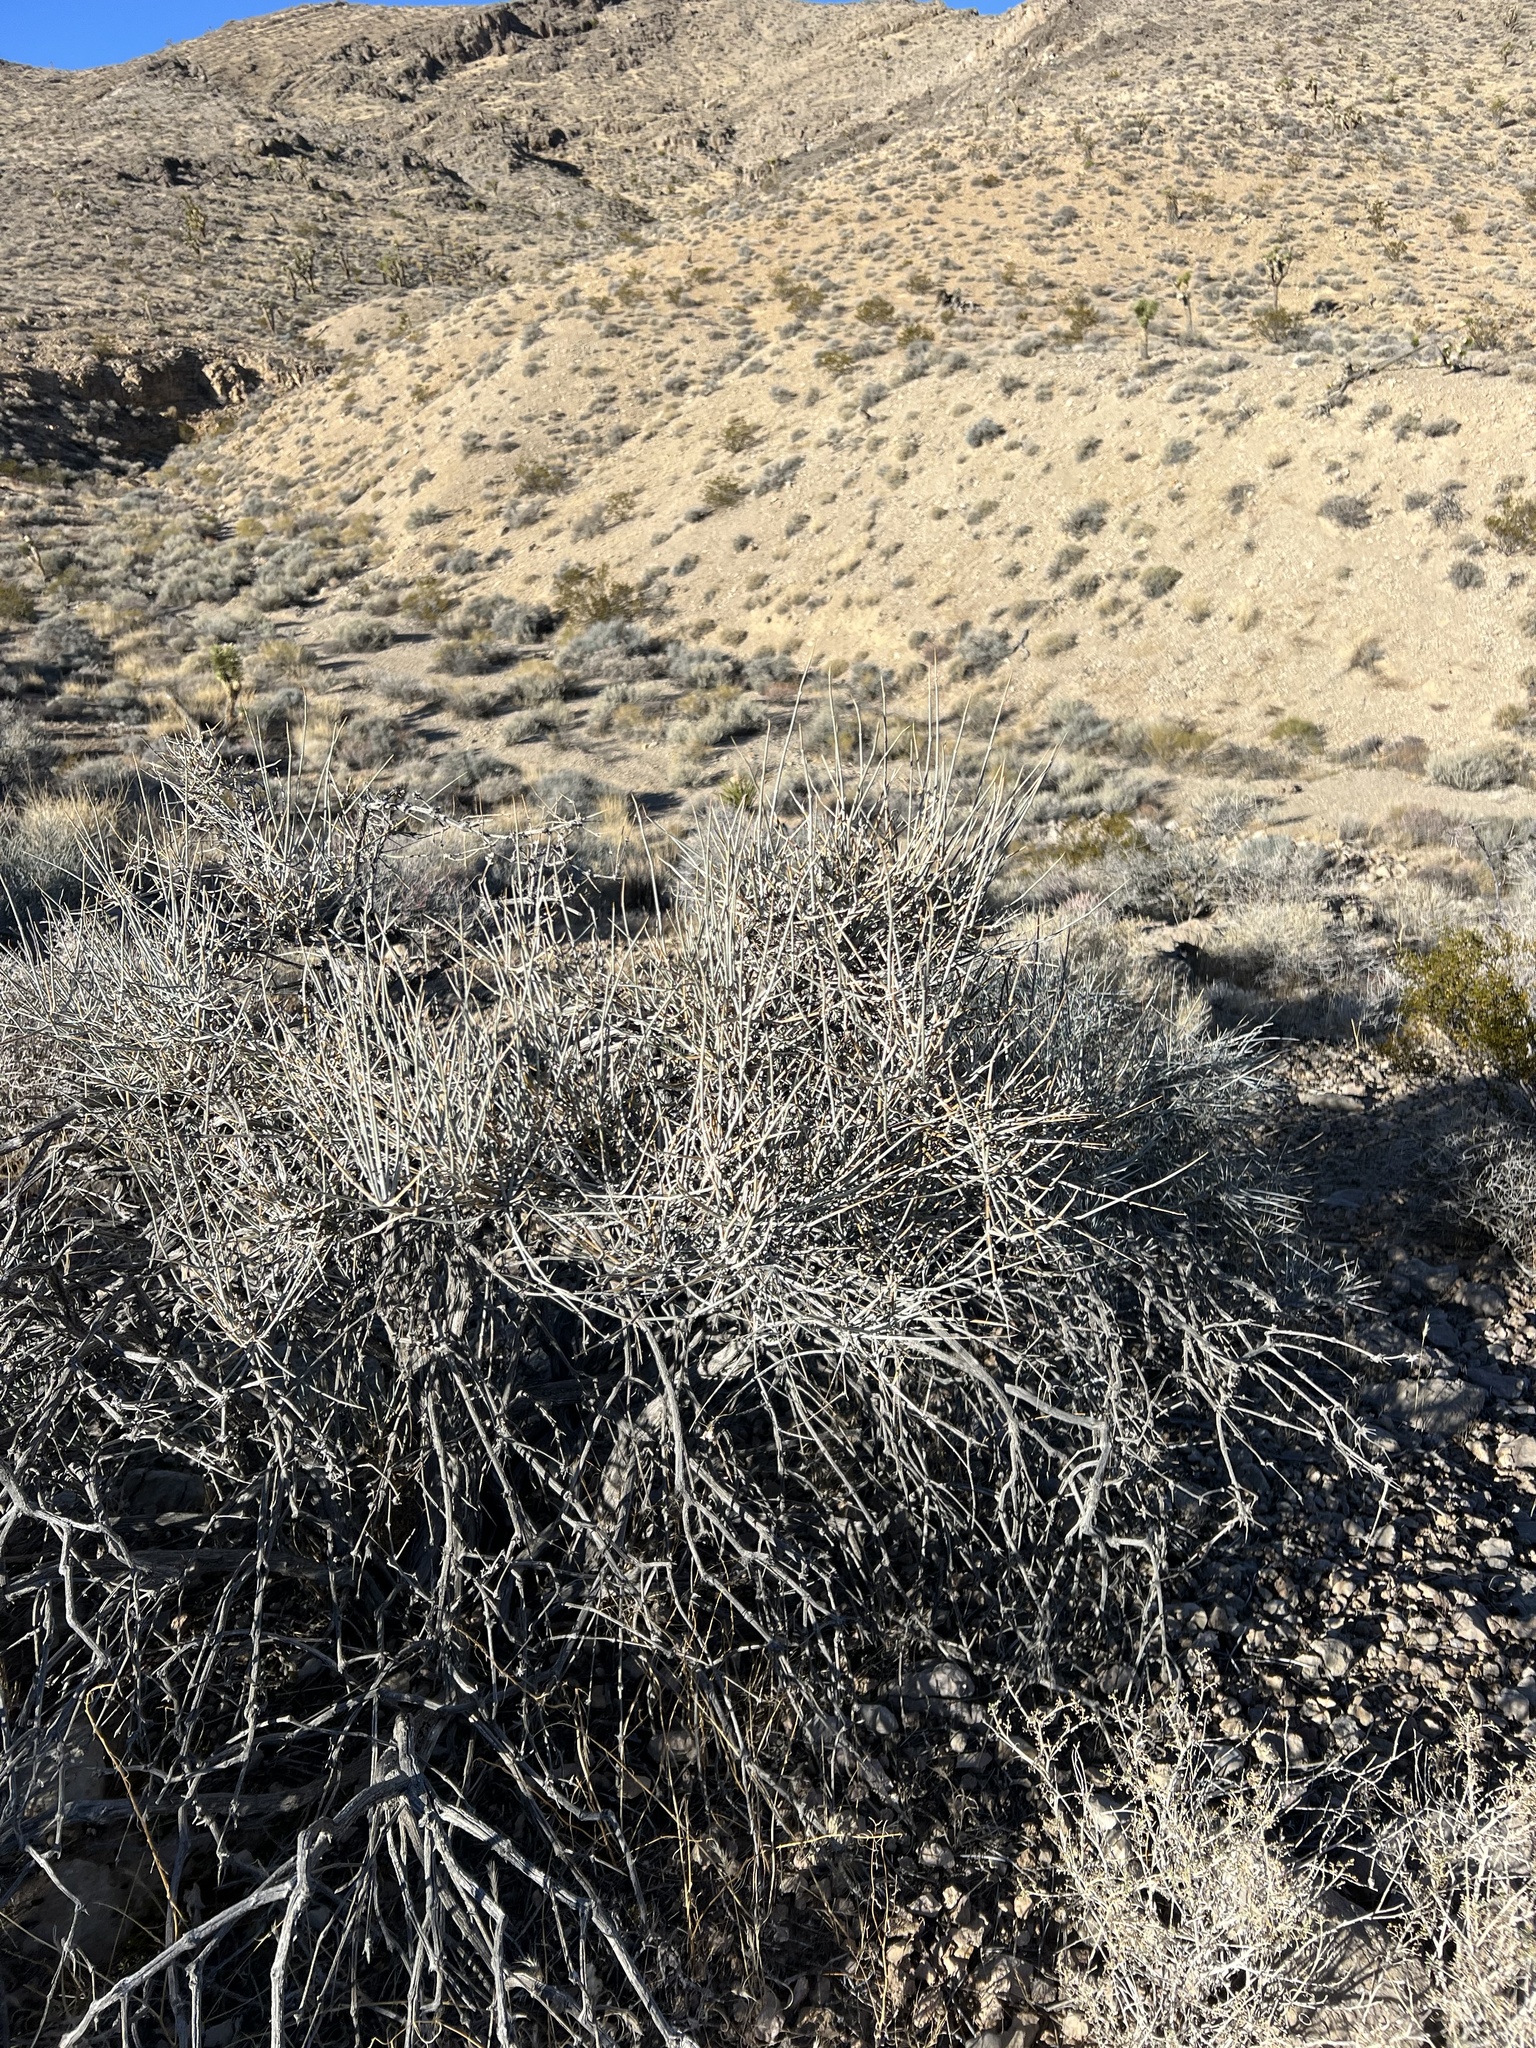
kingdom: Plantae
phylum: Tracheophyta
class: Gnetopsida
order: Ephedrales
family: Ephedraceae
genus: Ephedra
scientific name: Ephedra nevadensis
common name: Gray ephedra
